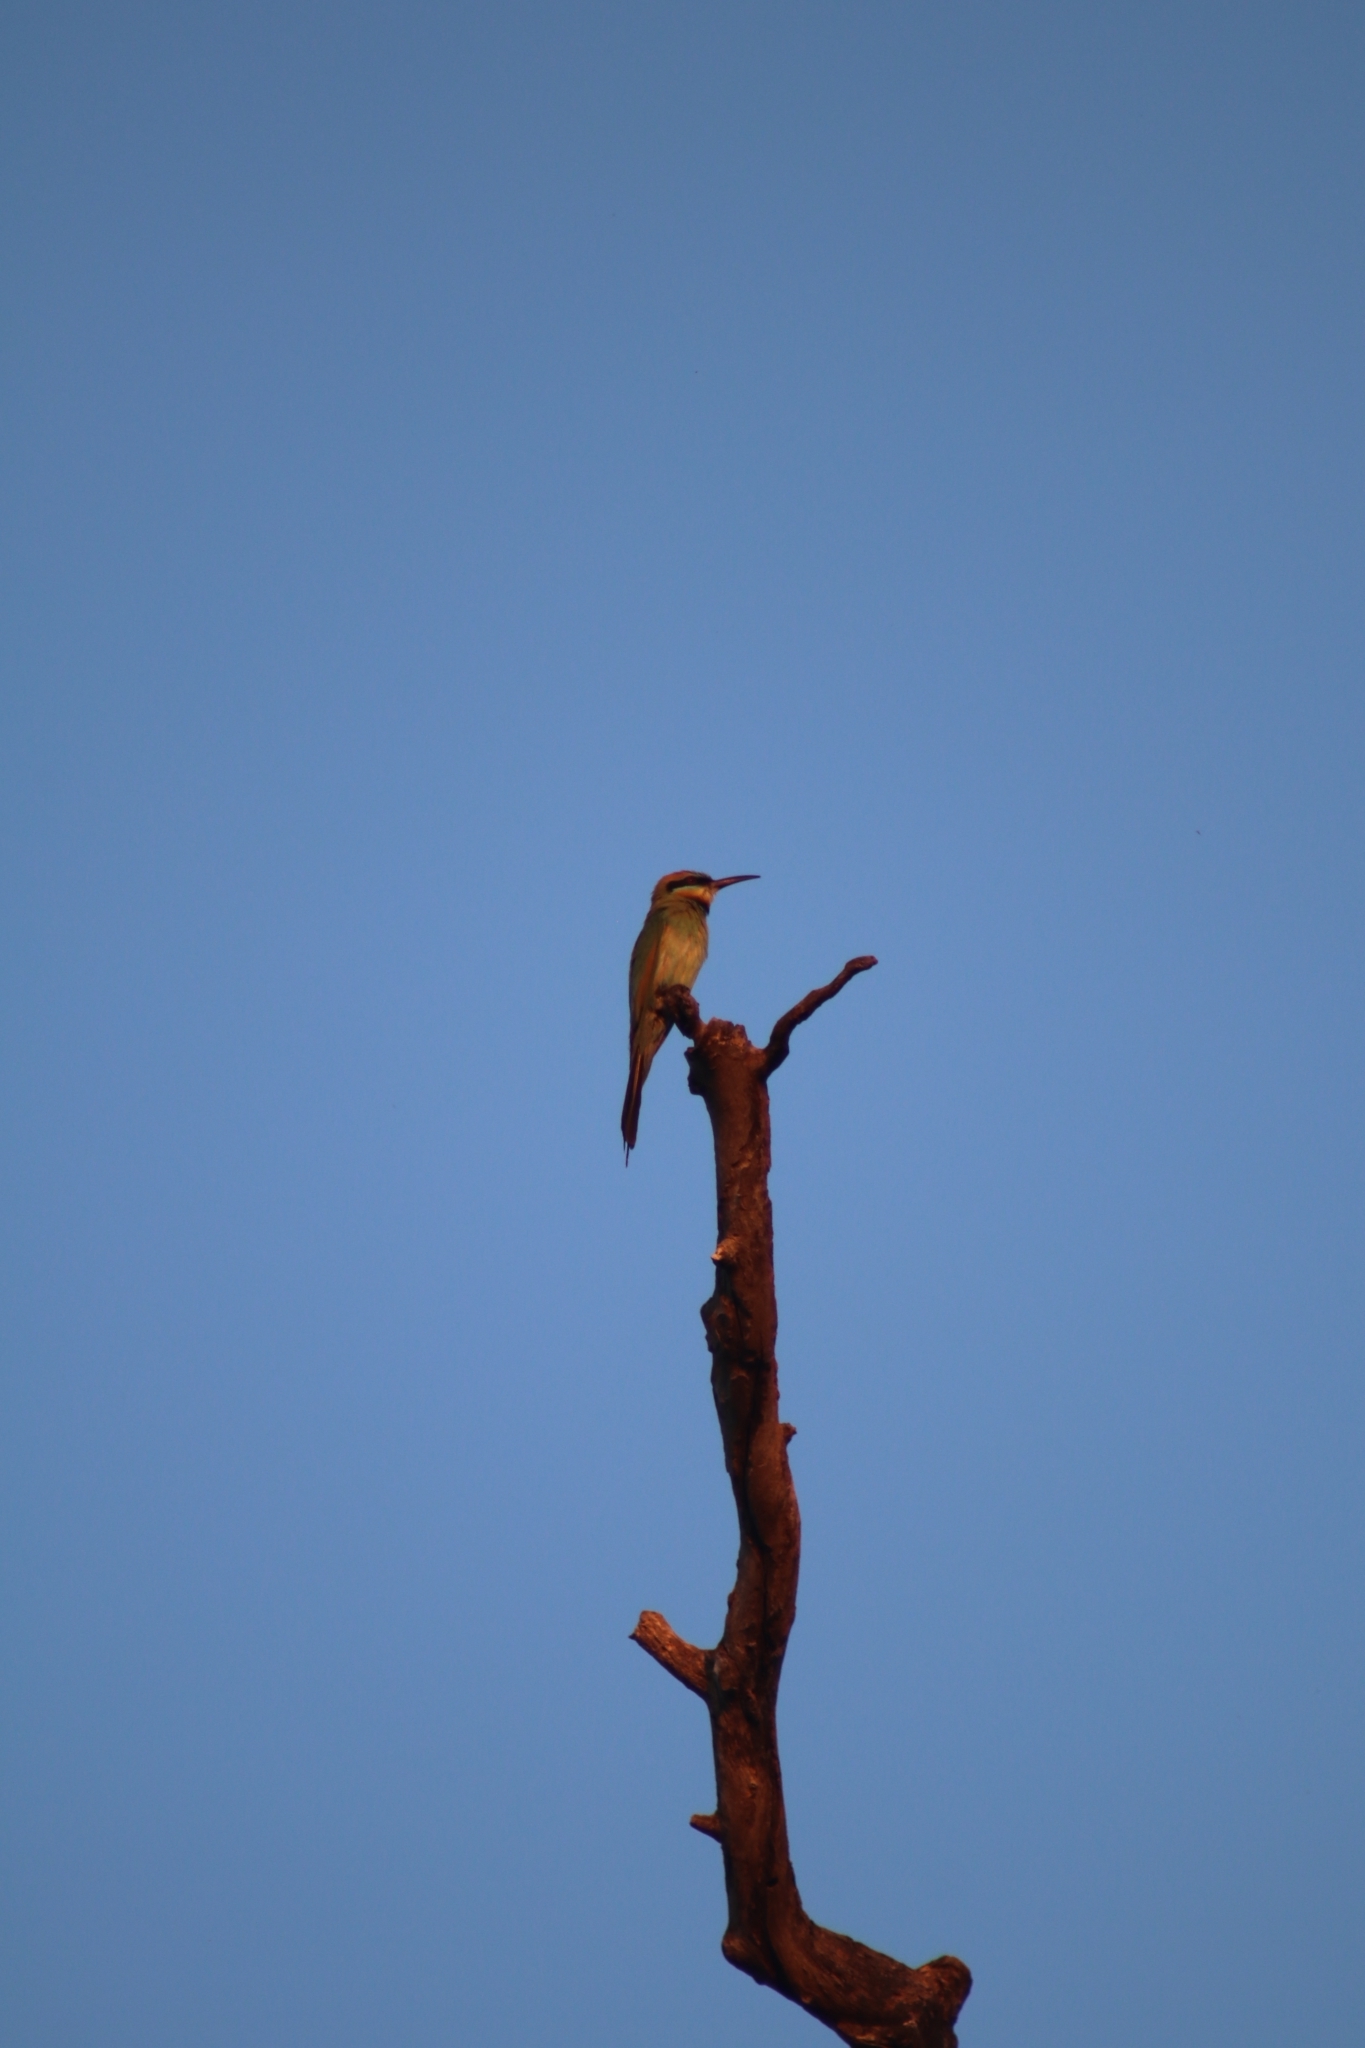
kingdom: Animalia
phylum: Chordata
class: Aves
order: Coraciiformes
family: Meropidae
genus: Merops
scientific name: Merops ornatus
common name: Rainbow bee-eater
